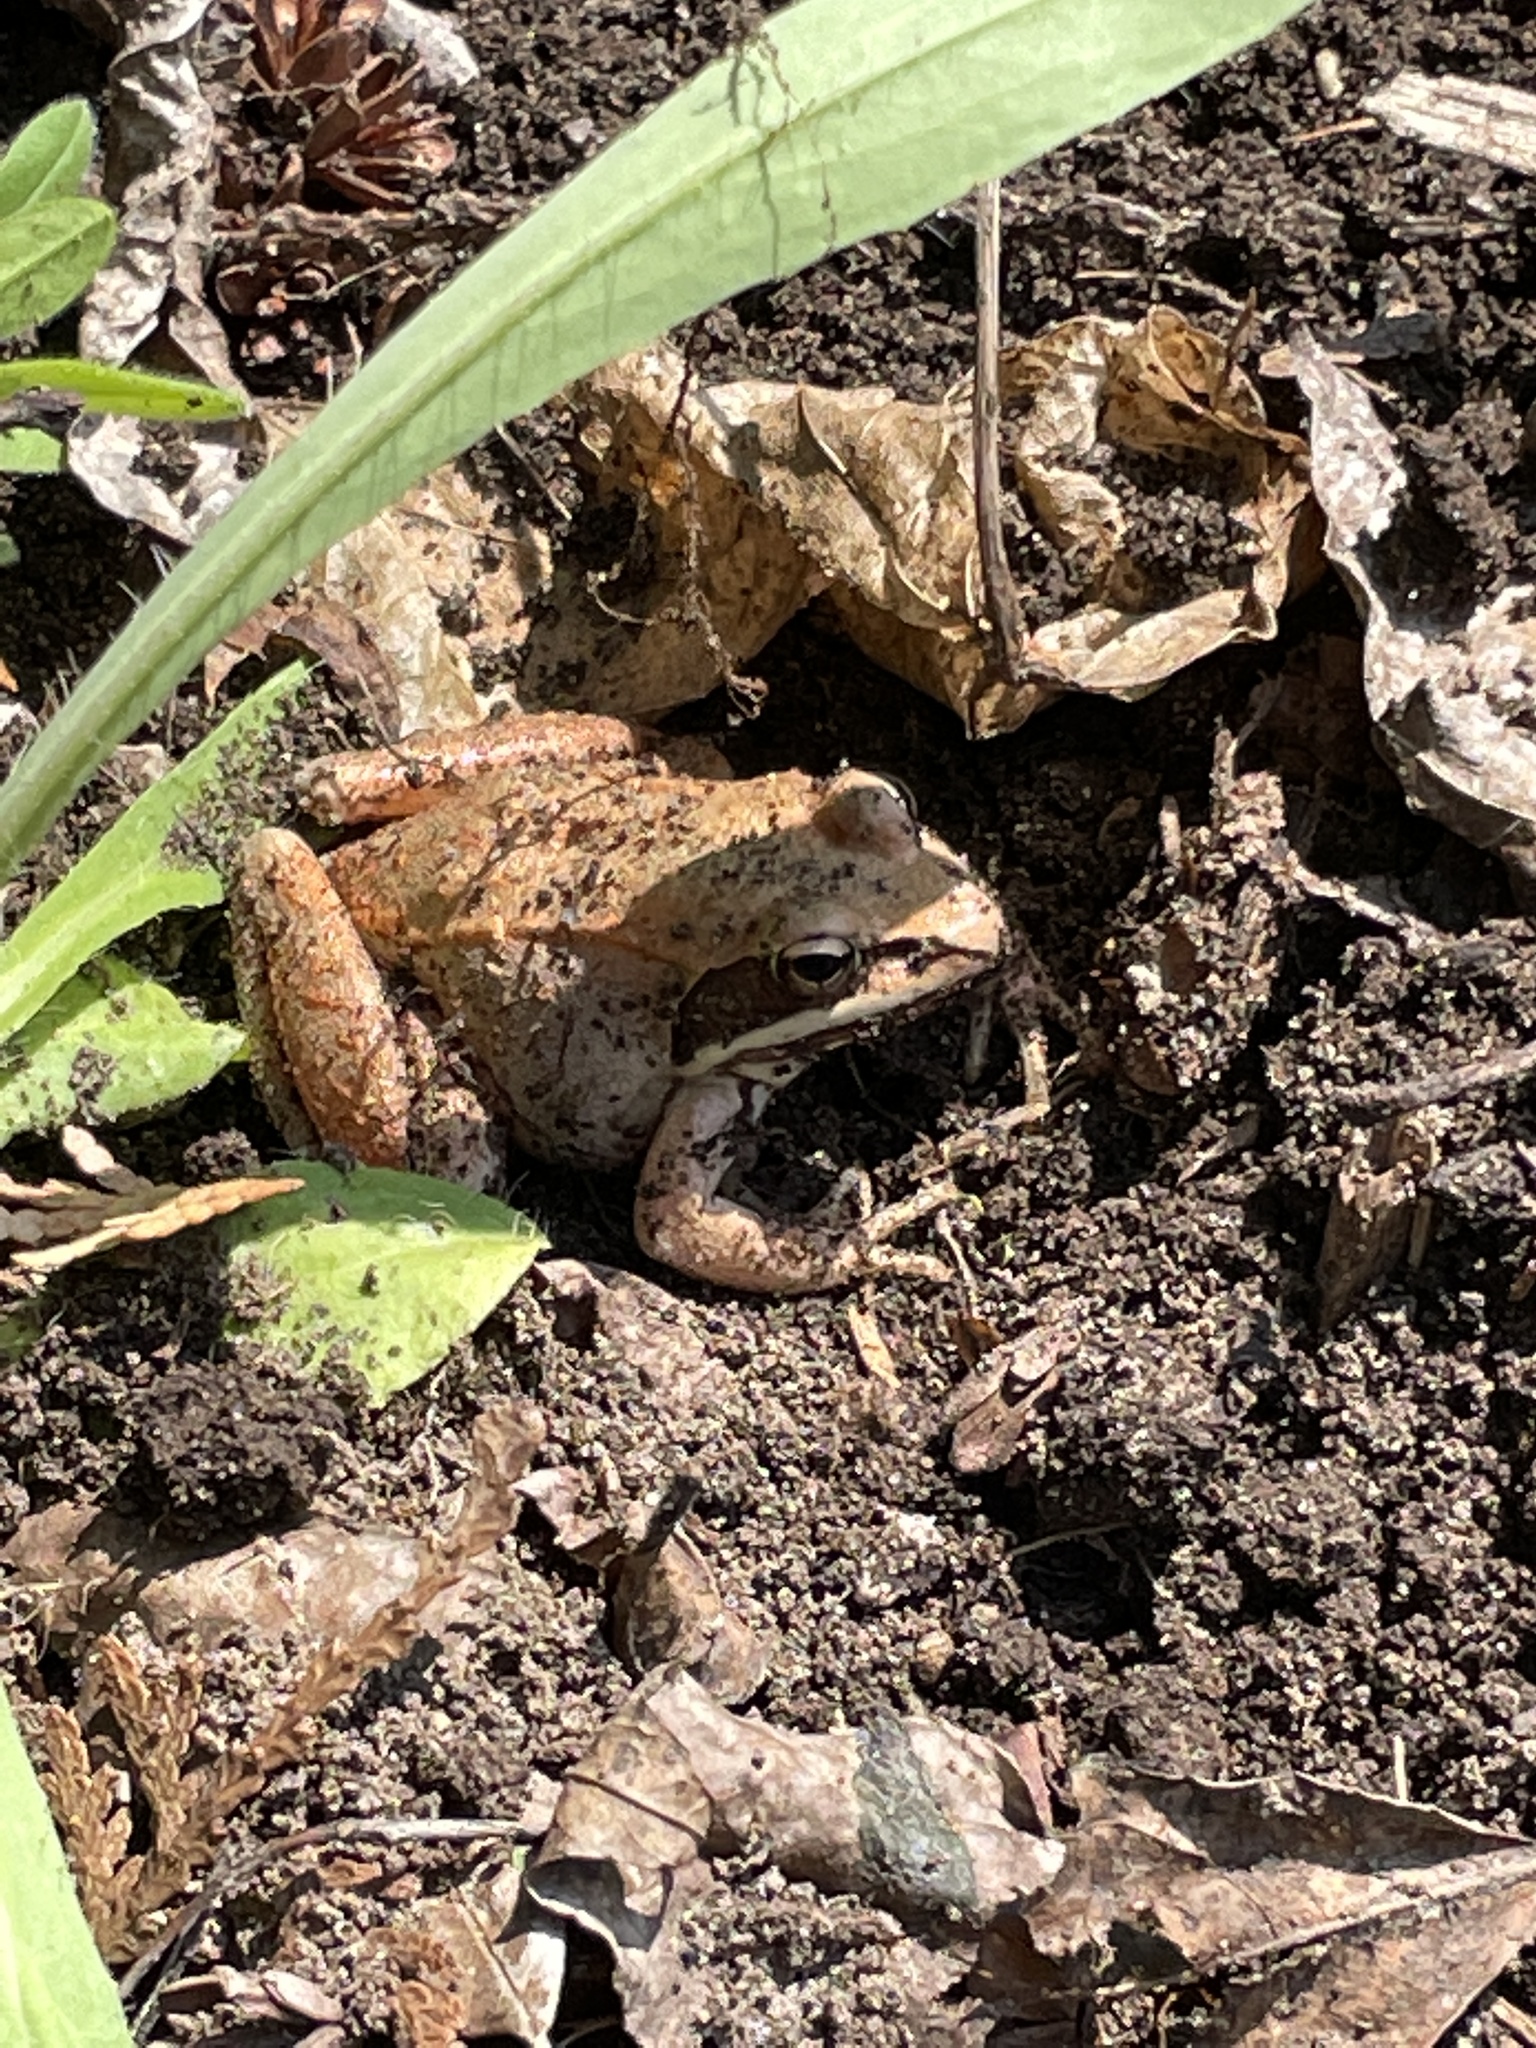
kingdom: Animalia
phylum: Chordata
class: Amphibia
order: Anura
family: Ranidae
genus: Lithobates
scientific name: Lithobates sylvaticus
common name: Wood frog
